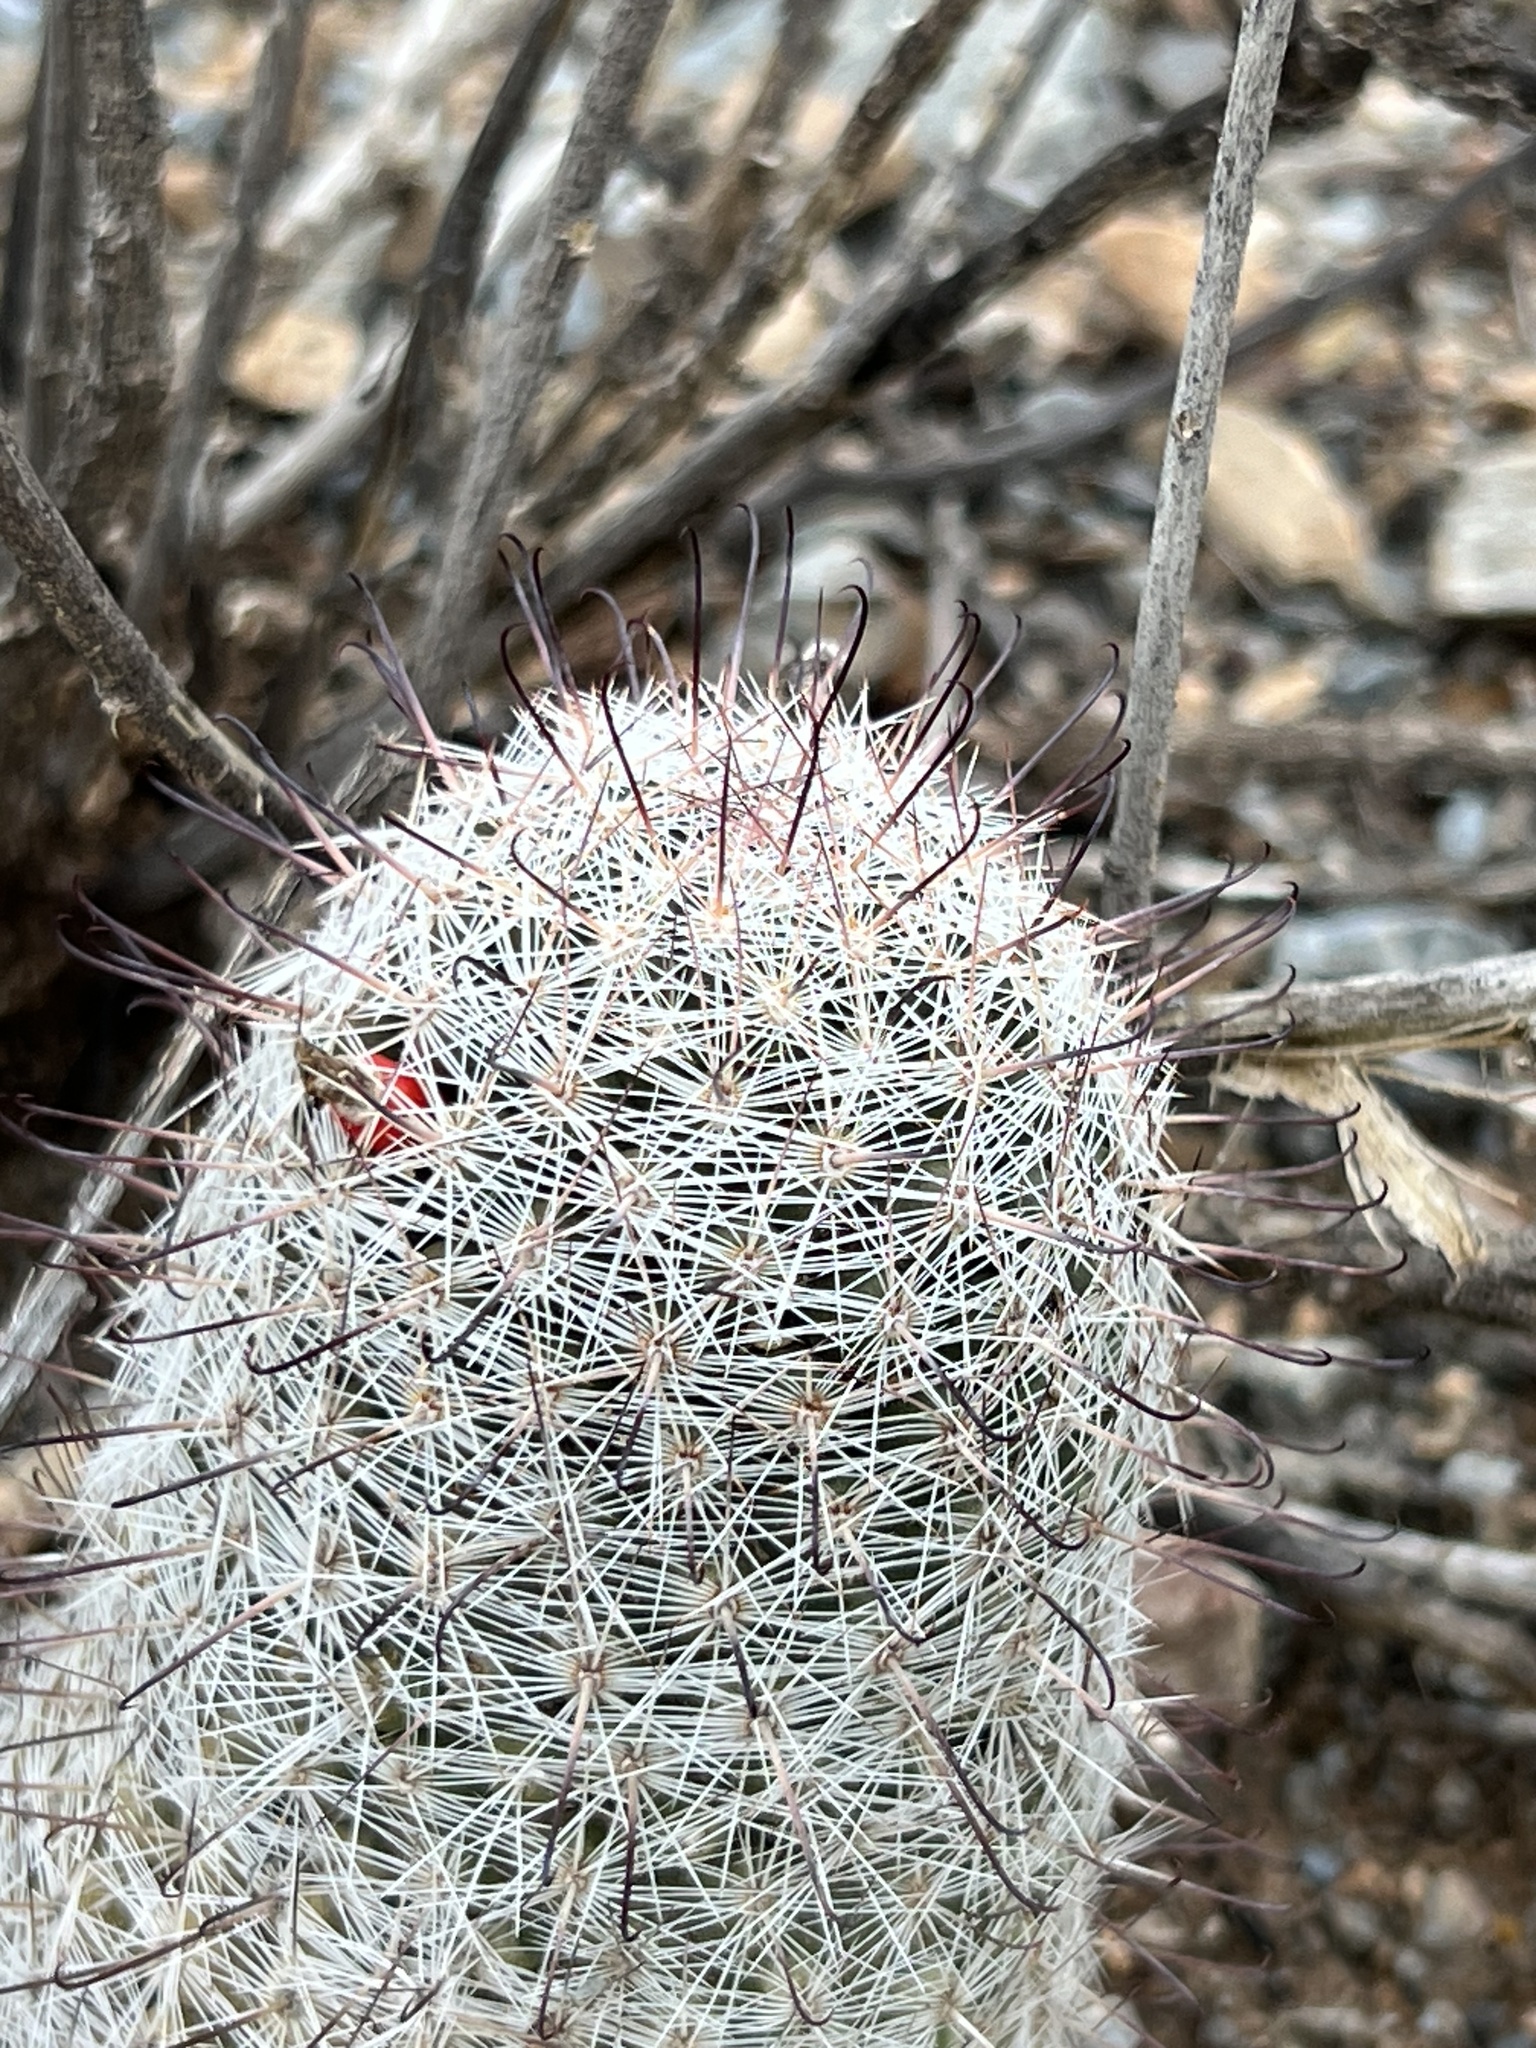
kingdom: Plantae
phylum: Tracheophyta
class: Magnoliopsida
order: Caryophyllales
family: Cactaceae
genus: Cochemiea
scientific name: Cochemiea grahamii
